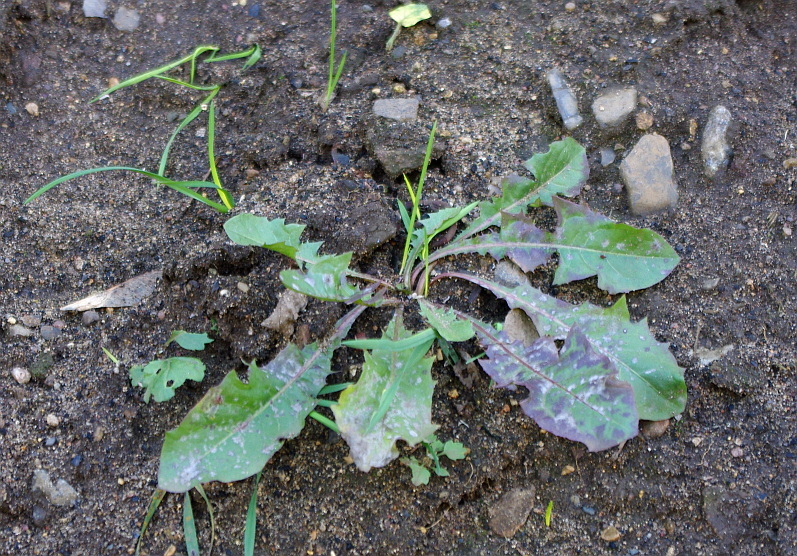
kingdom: Plantae
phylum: Tracheophyta
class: Magnoliopsida
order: Asterales
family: Asteraceae
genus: Taraxacum
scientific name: Taraxacum officinale
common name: Common dandelion
